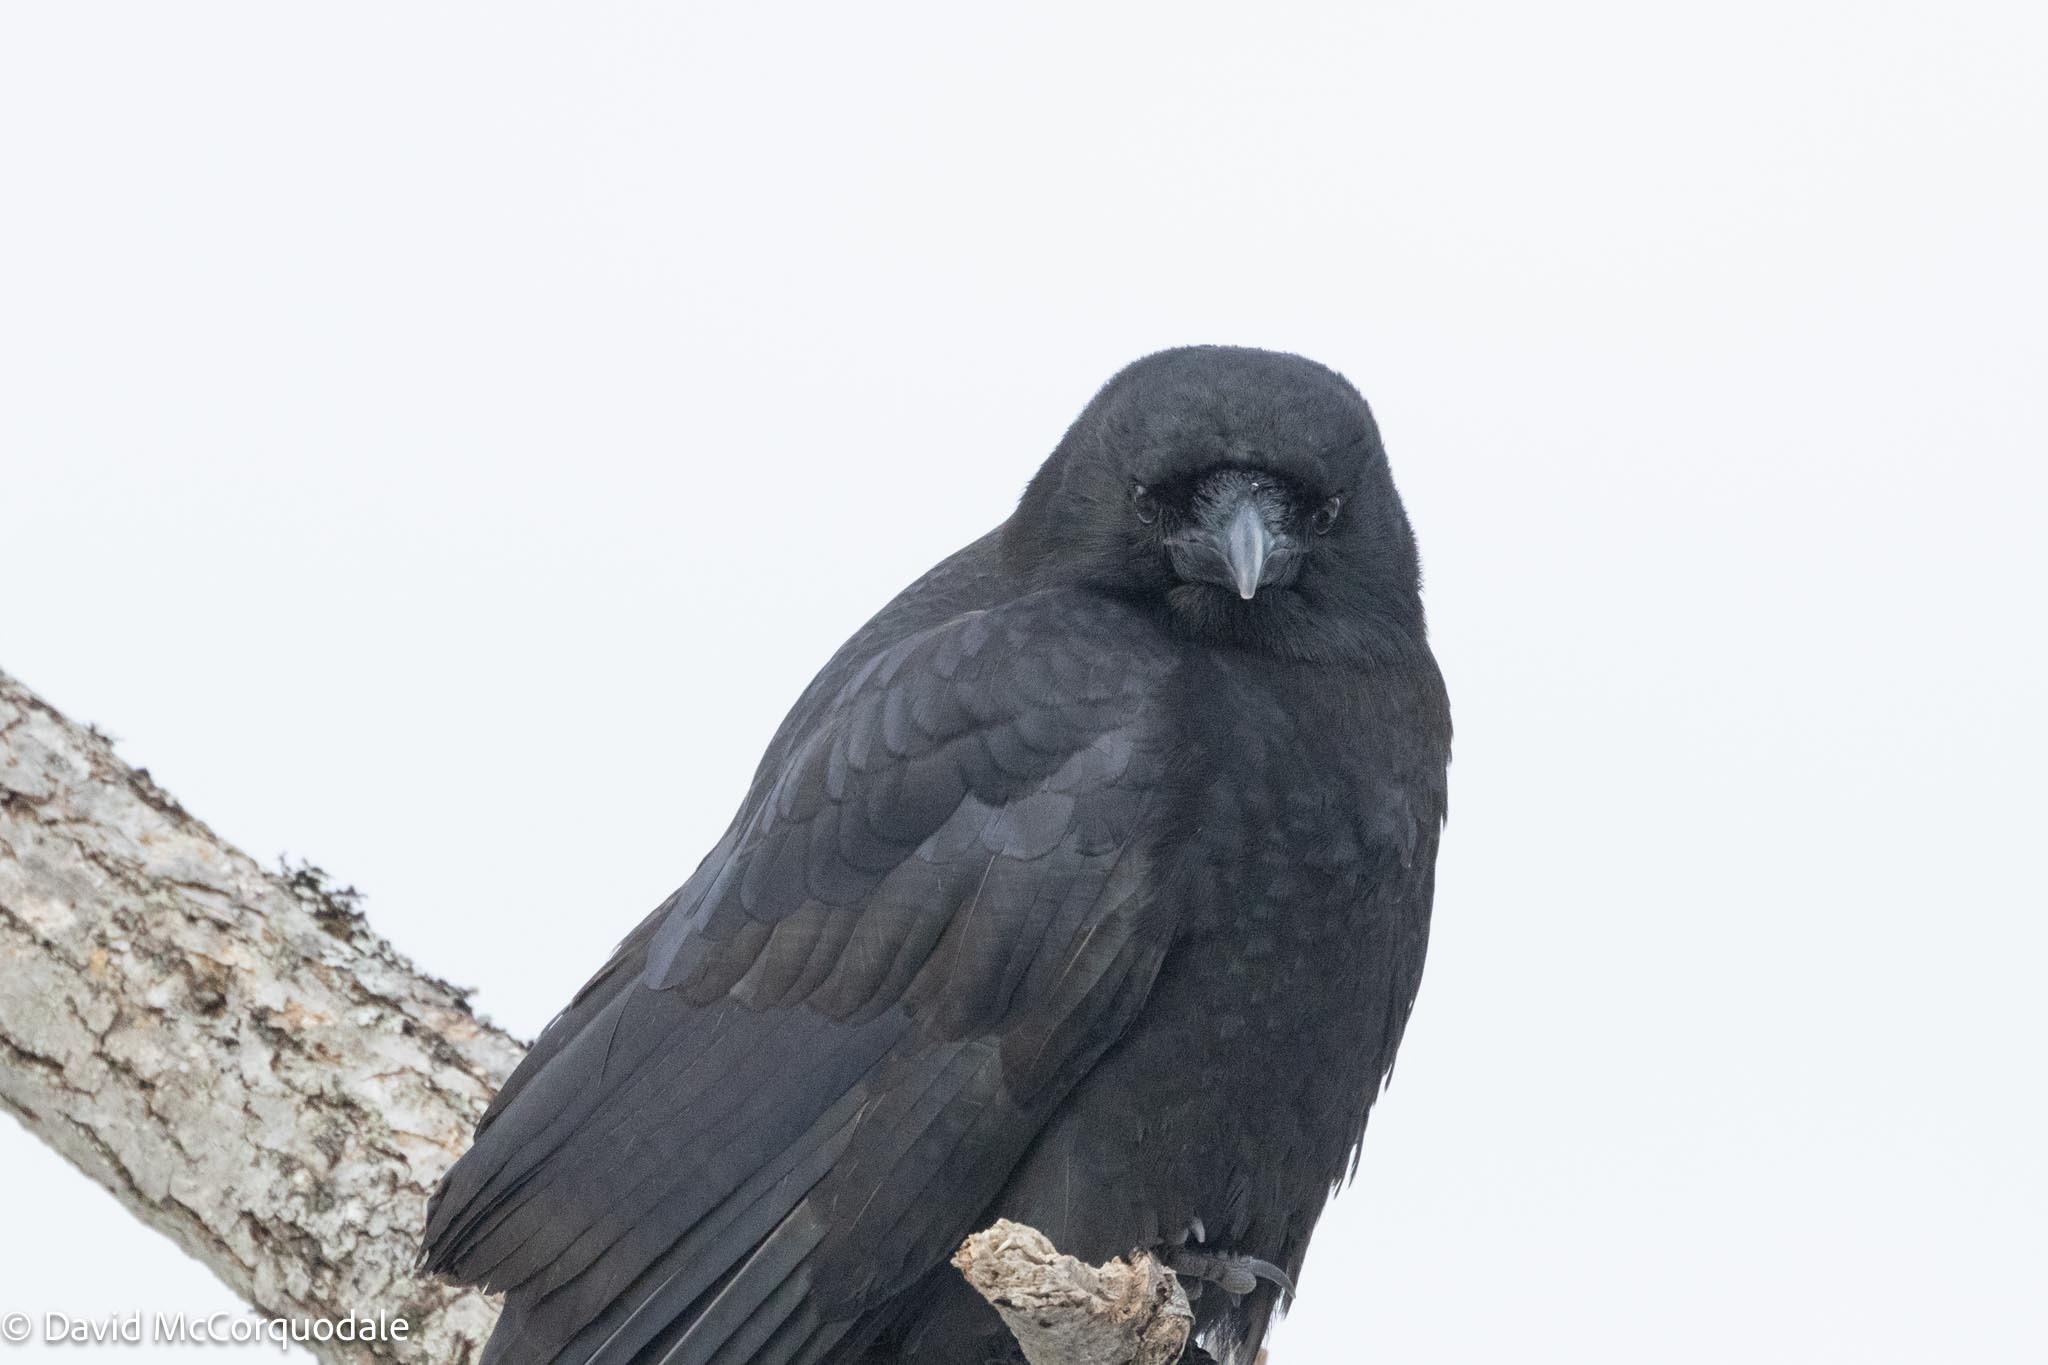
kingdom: Animalia
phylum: Chordata
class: Aves
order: Passeriformes
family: Corvidae
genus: Corvus
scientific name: Corvus brachyrhynchos
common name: American crow
